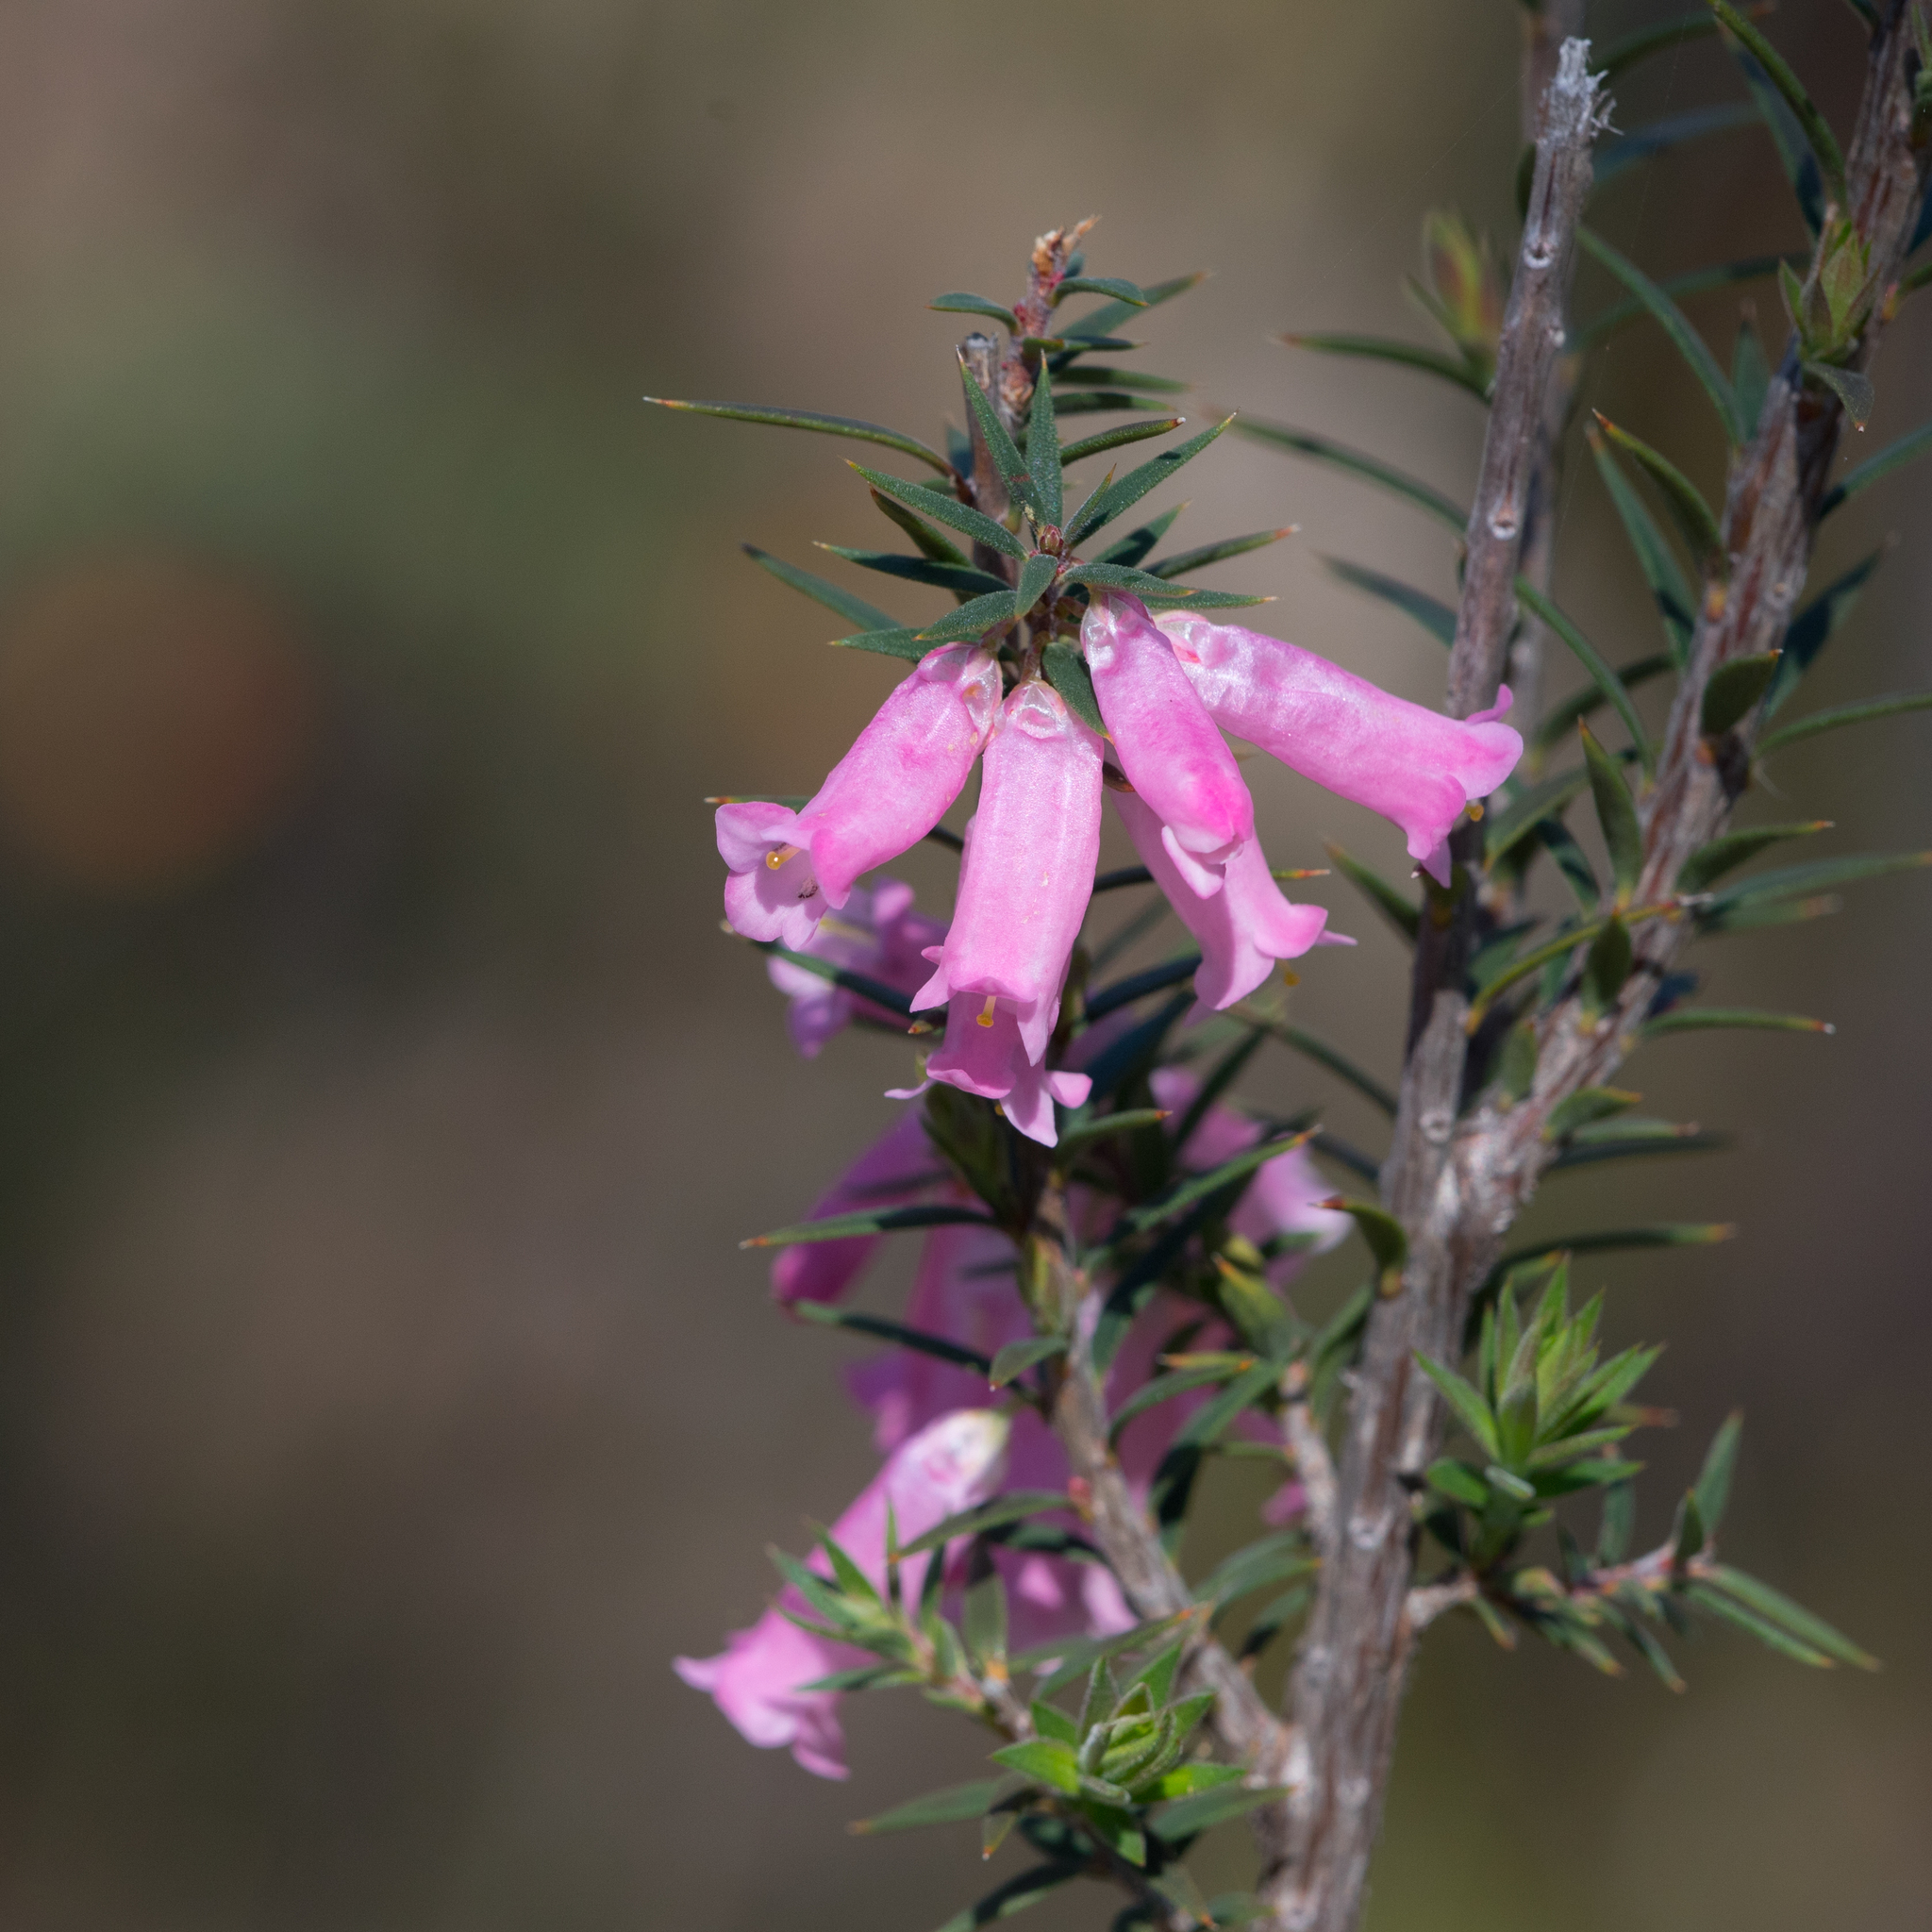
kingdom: Plantae
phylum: Tracheophyta
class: Magnoliopsida
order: Ericales
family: Ericaceae
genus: Epacris
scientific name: Epacris impressa
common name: Common-heath
